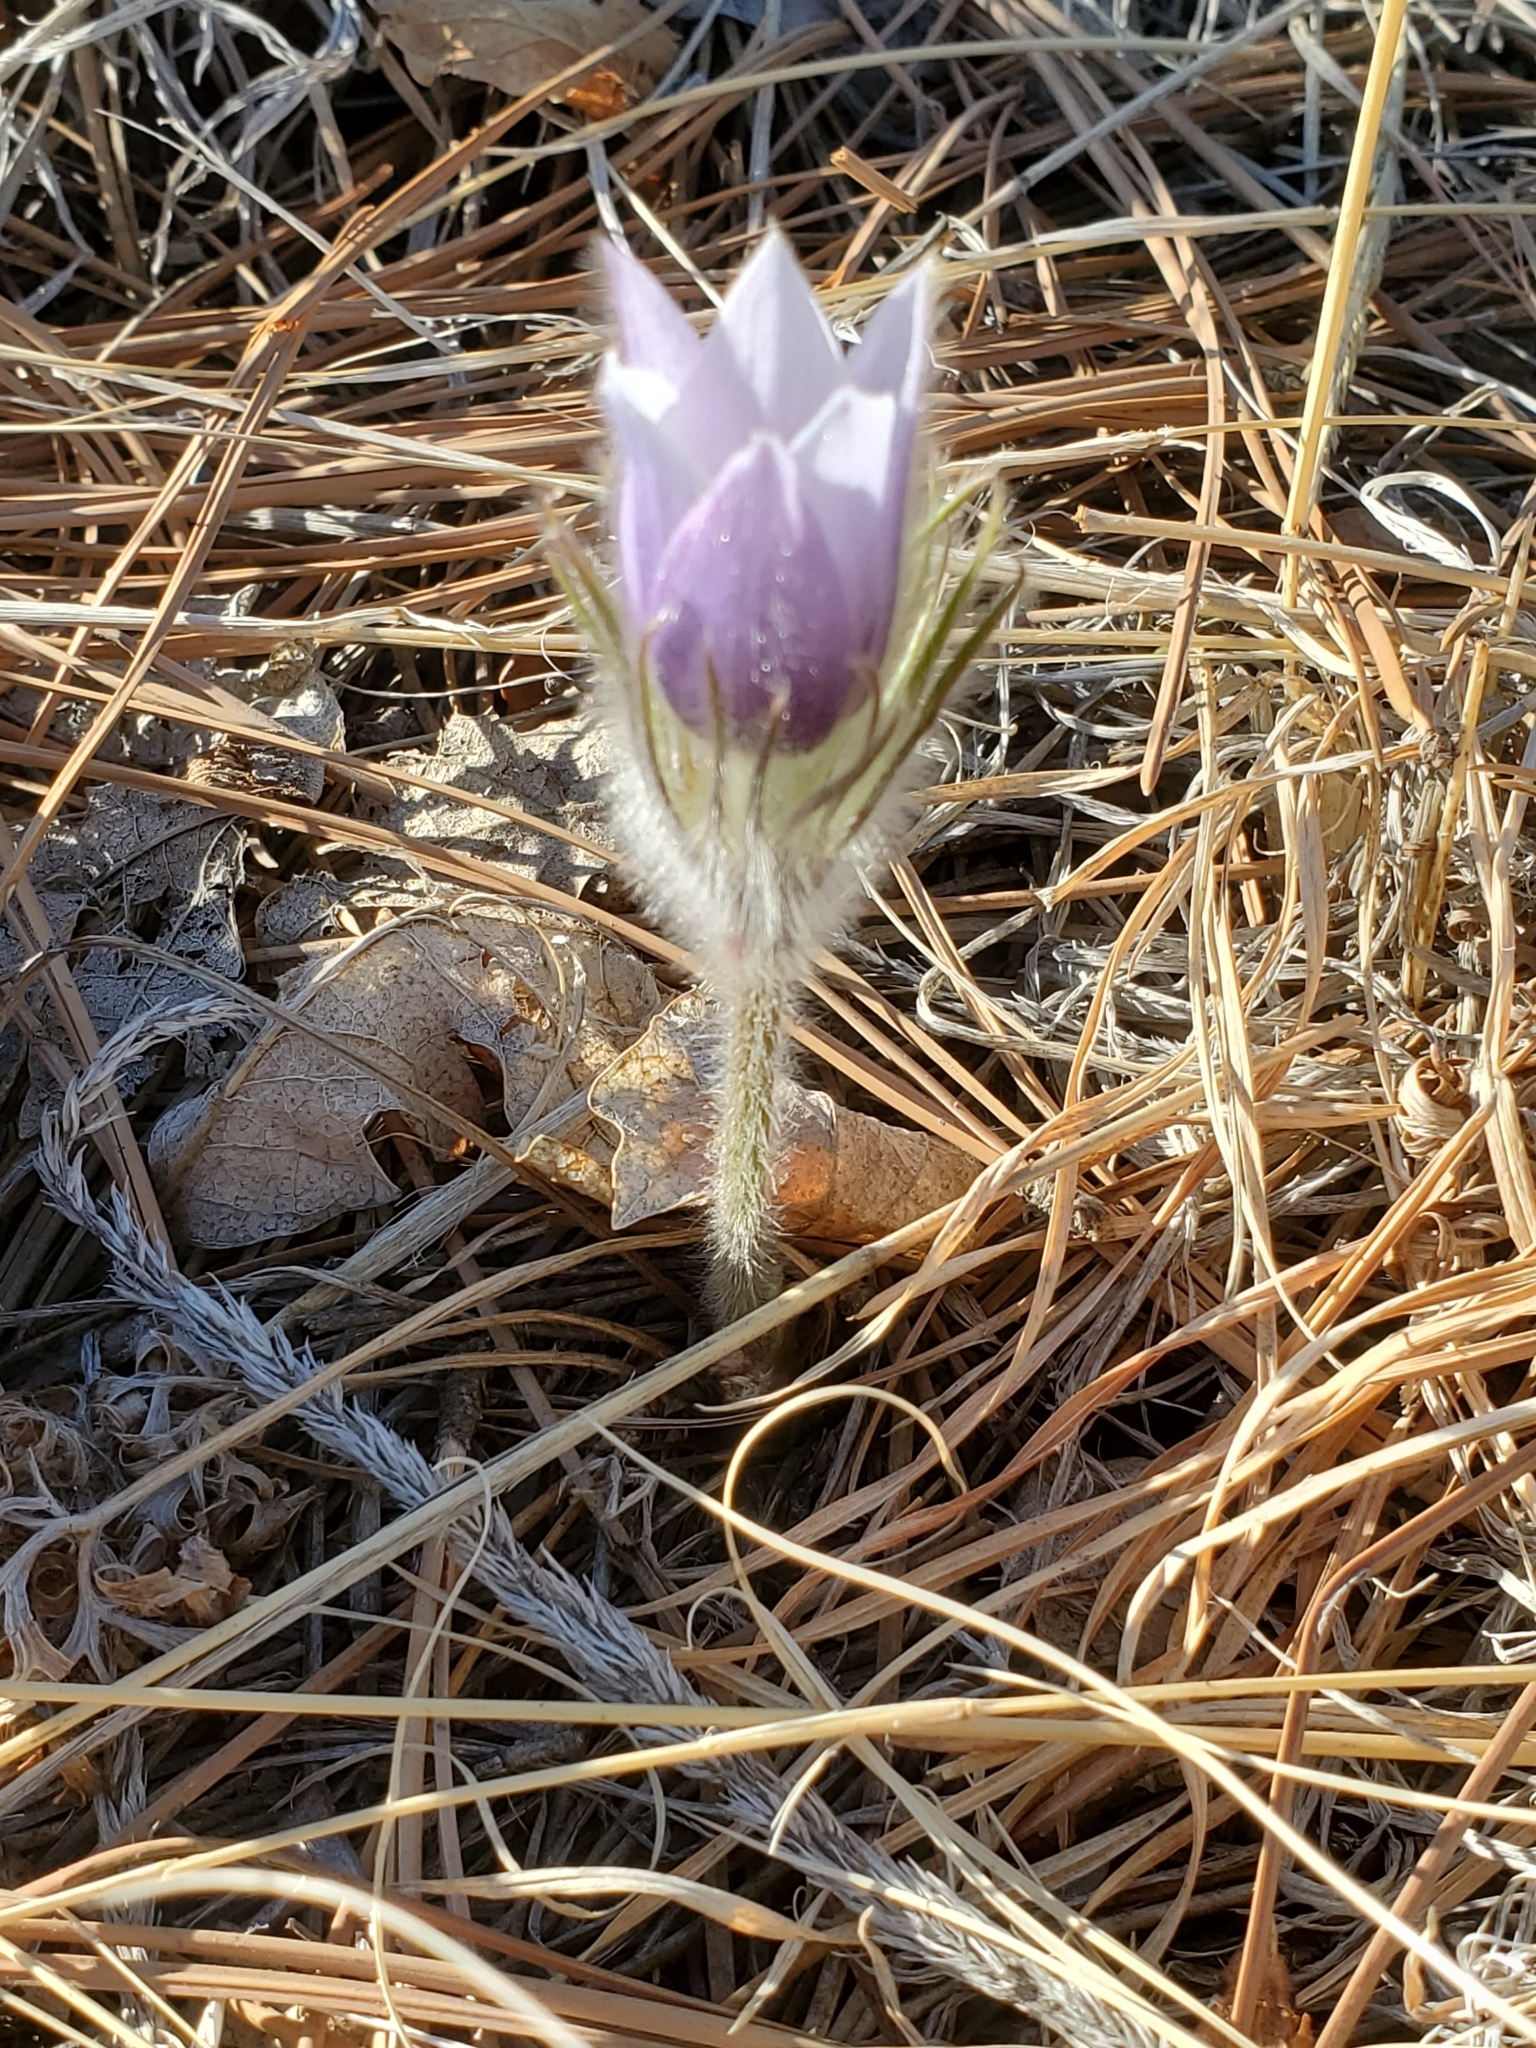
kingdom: Plantae
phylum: Tracheophyta
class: Magnoliopsida
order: Ranunculales
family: Ranunculaceae
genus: Pulsatilla
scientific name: Pulsatilla nuttalliana
